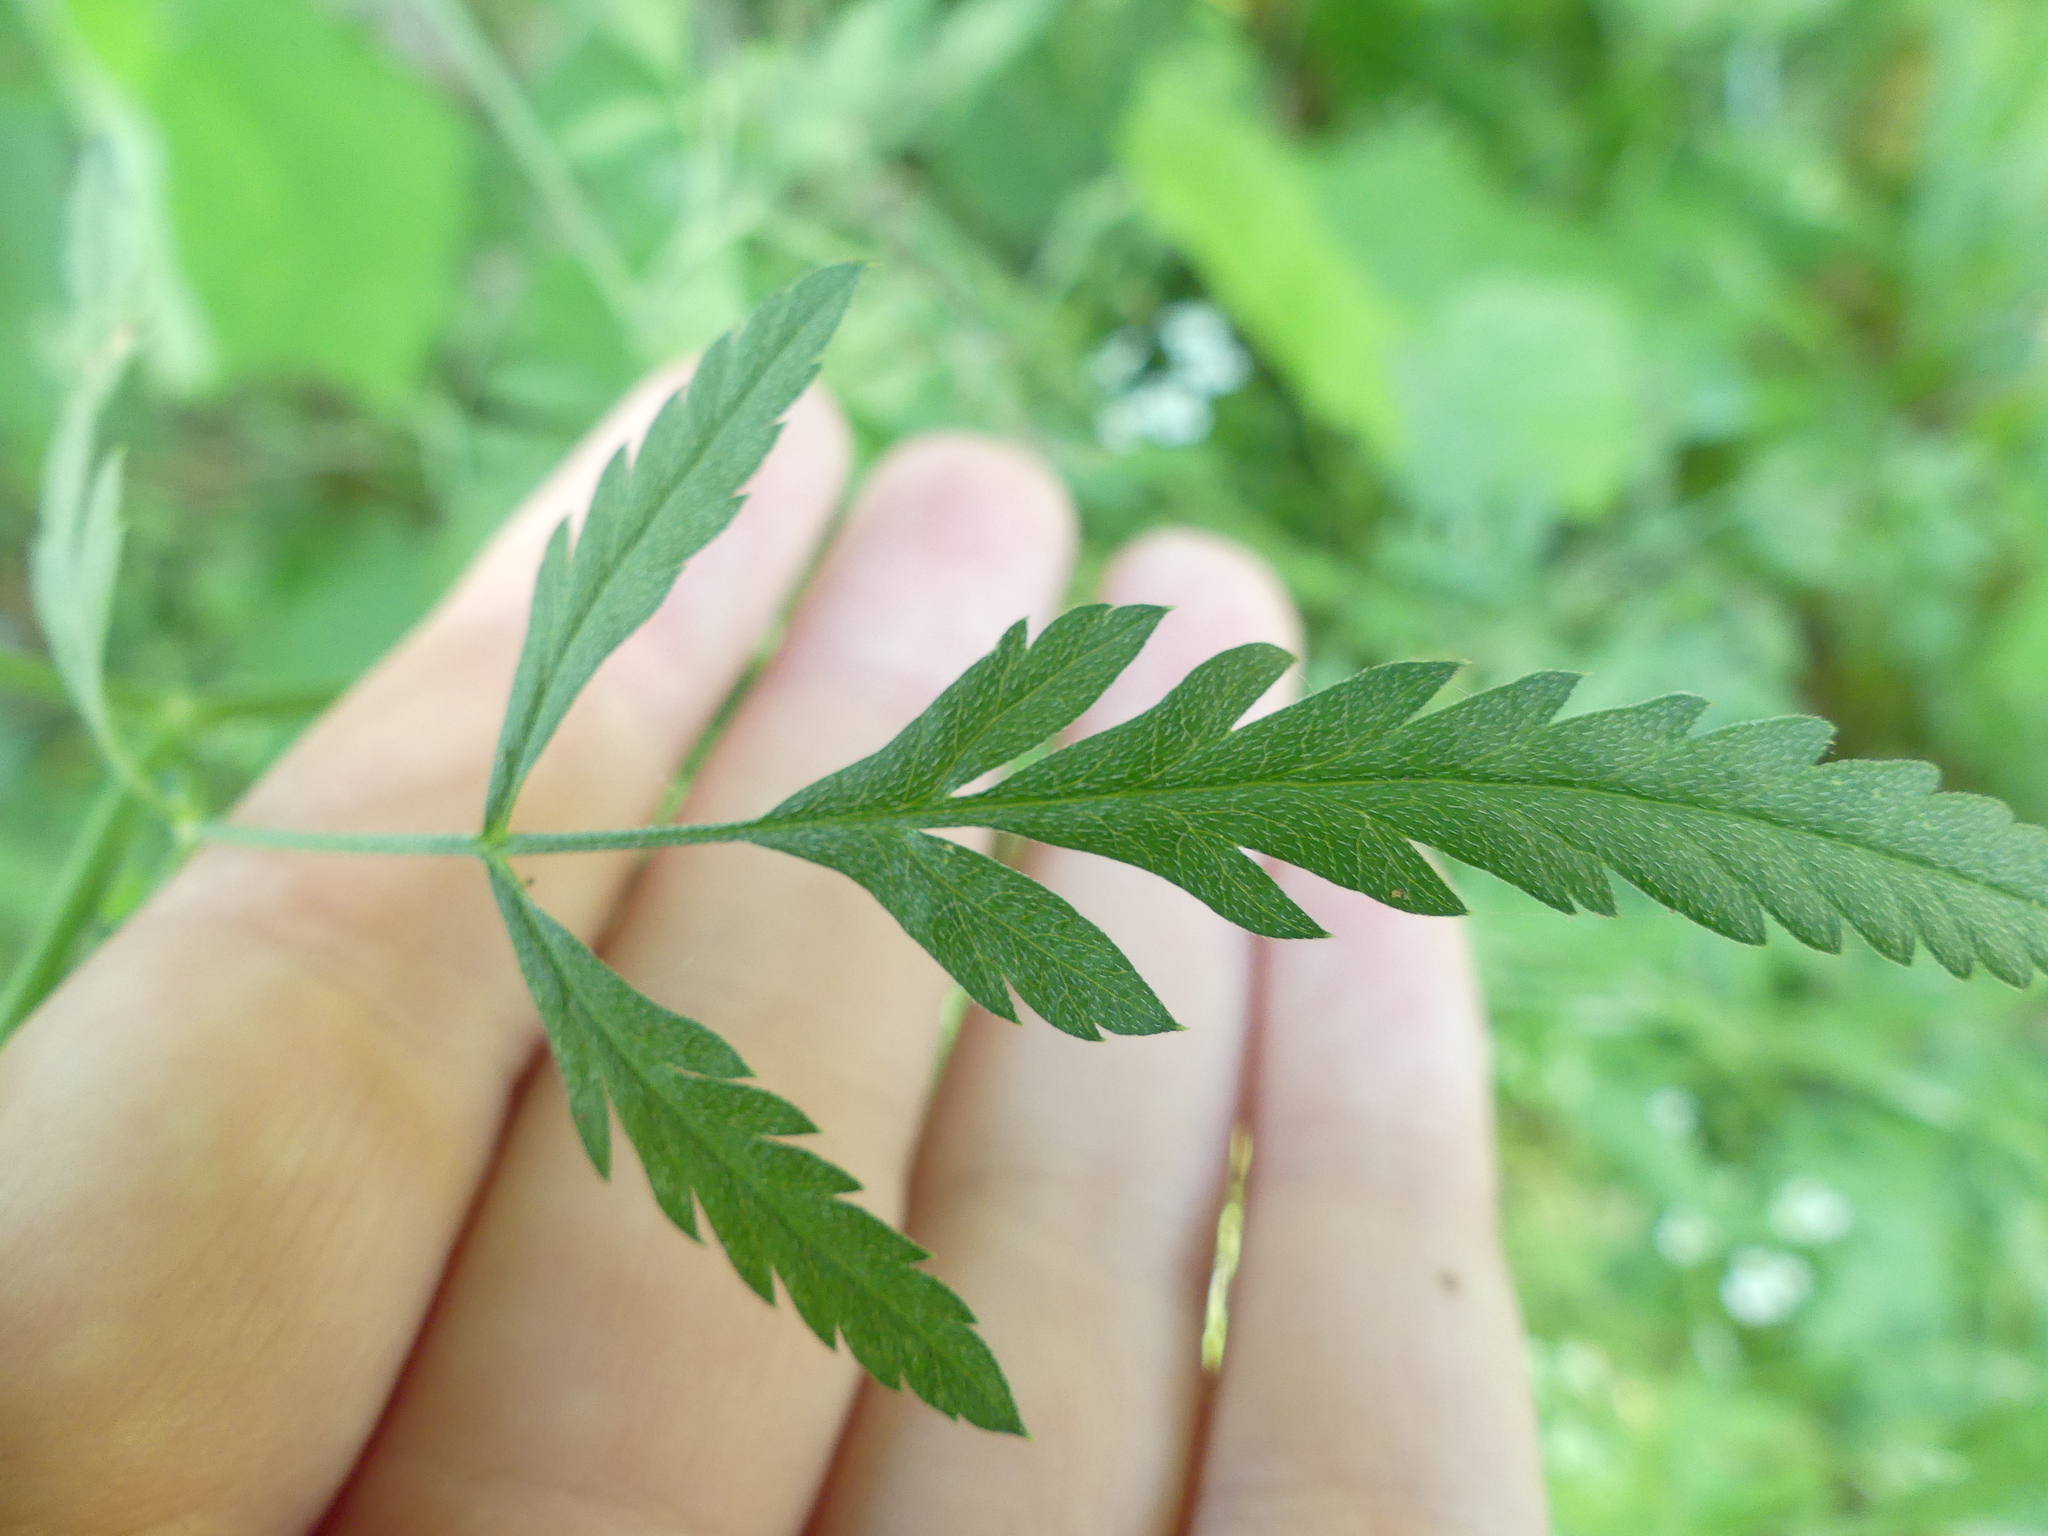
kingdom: Plantae
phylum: Tracheophyta
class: Magnoliopsida
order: Apiales
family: Apiaceae
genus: Torilis
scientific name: Torilis arvensis
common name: Spreading hedge-parsley
